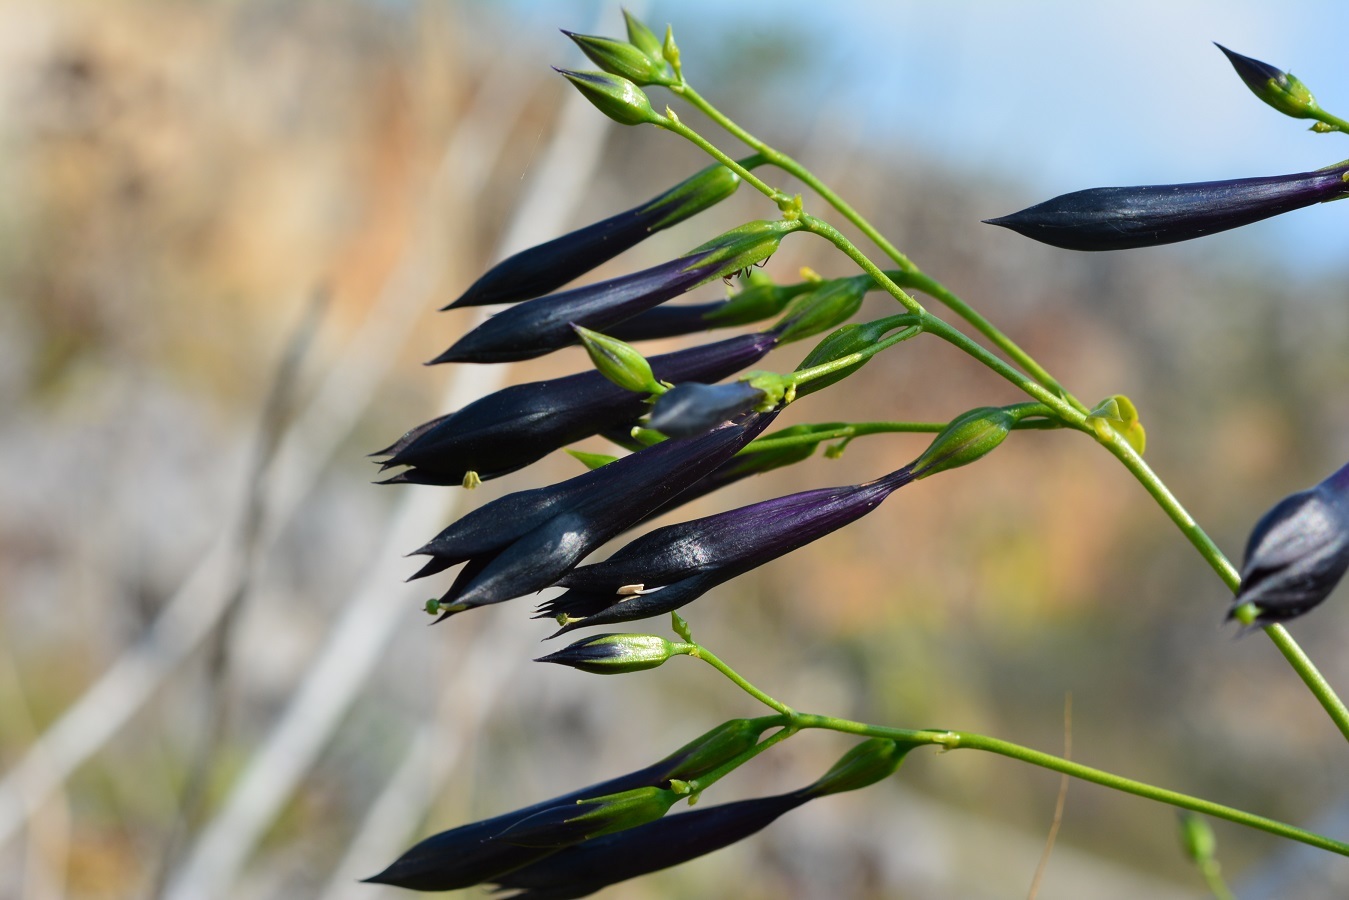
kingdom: Plantae
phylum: Tracheophyta
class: Magnoliopsida
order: Gentianales
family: Gentianaceae
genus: Lisianthus
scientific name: Lisianthus nigrescens
